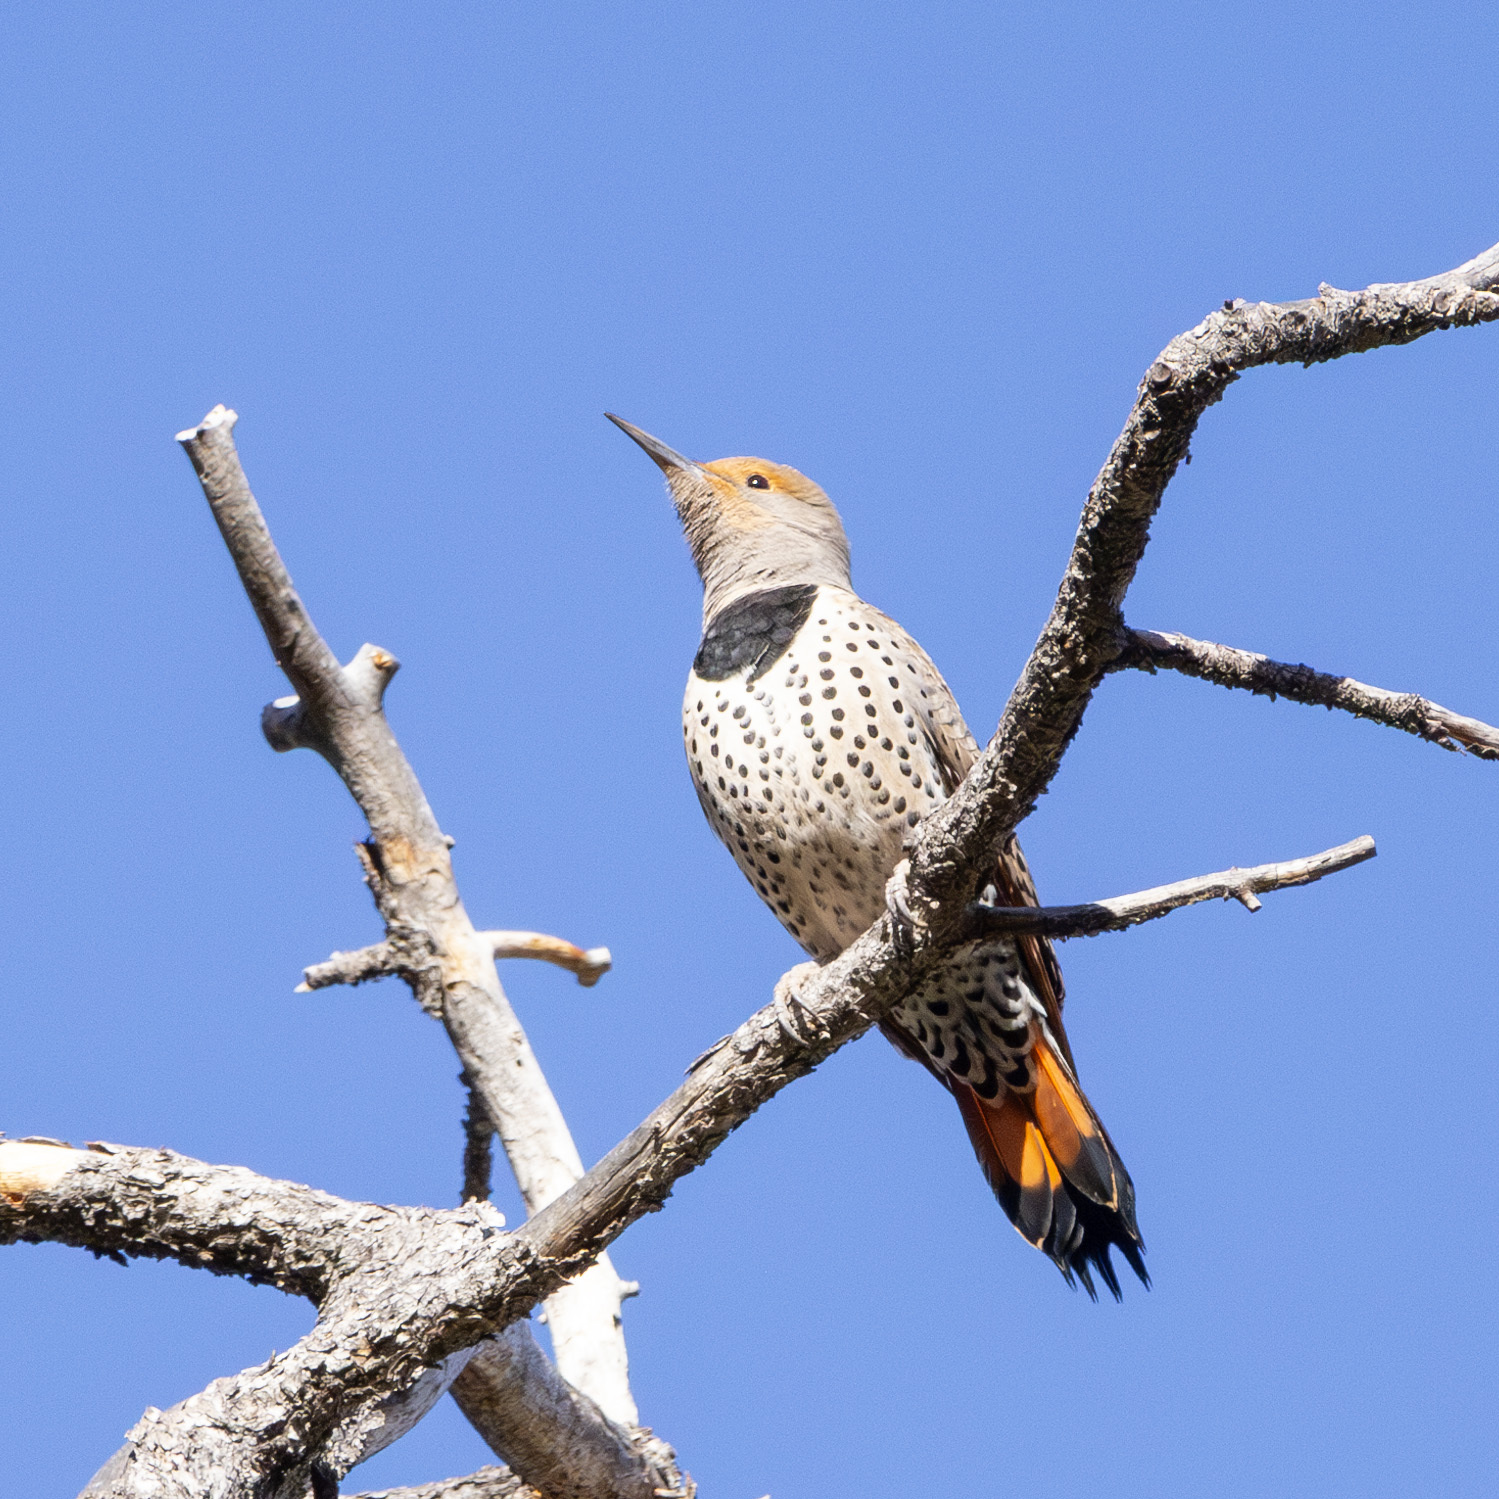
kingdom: Animalia
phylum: Chordata
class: Aves
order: Piciformes
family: Picidae
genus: Colaptes
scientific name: Colaptes auratus
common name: Northern flicker
